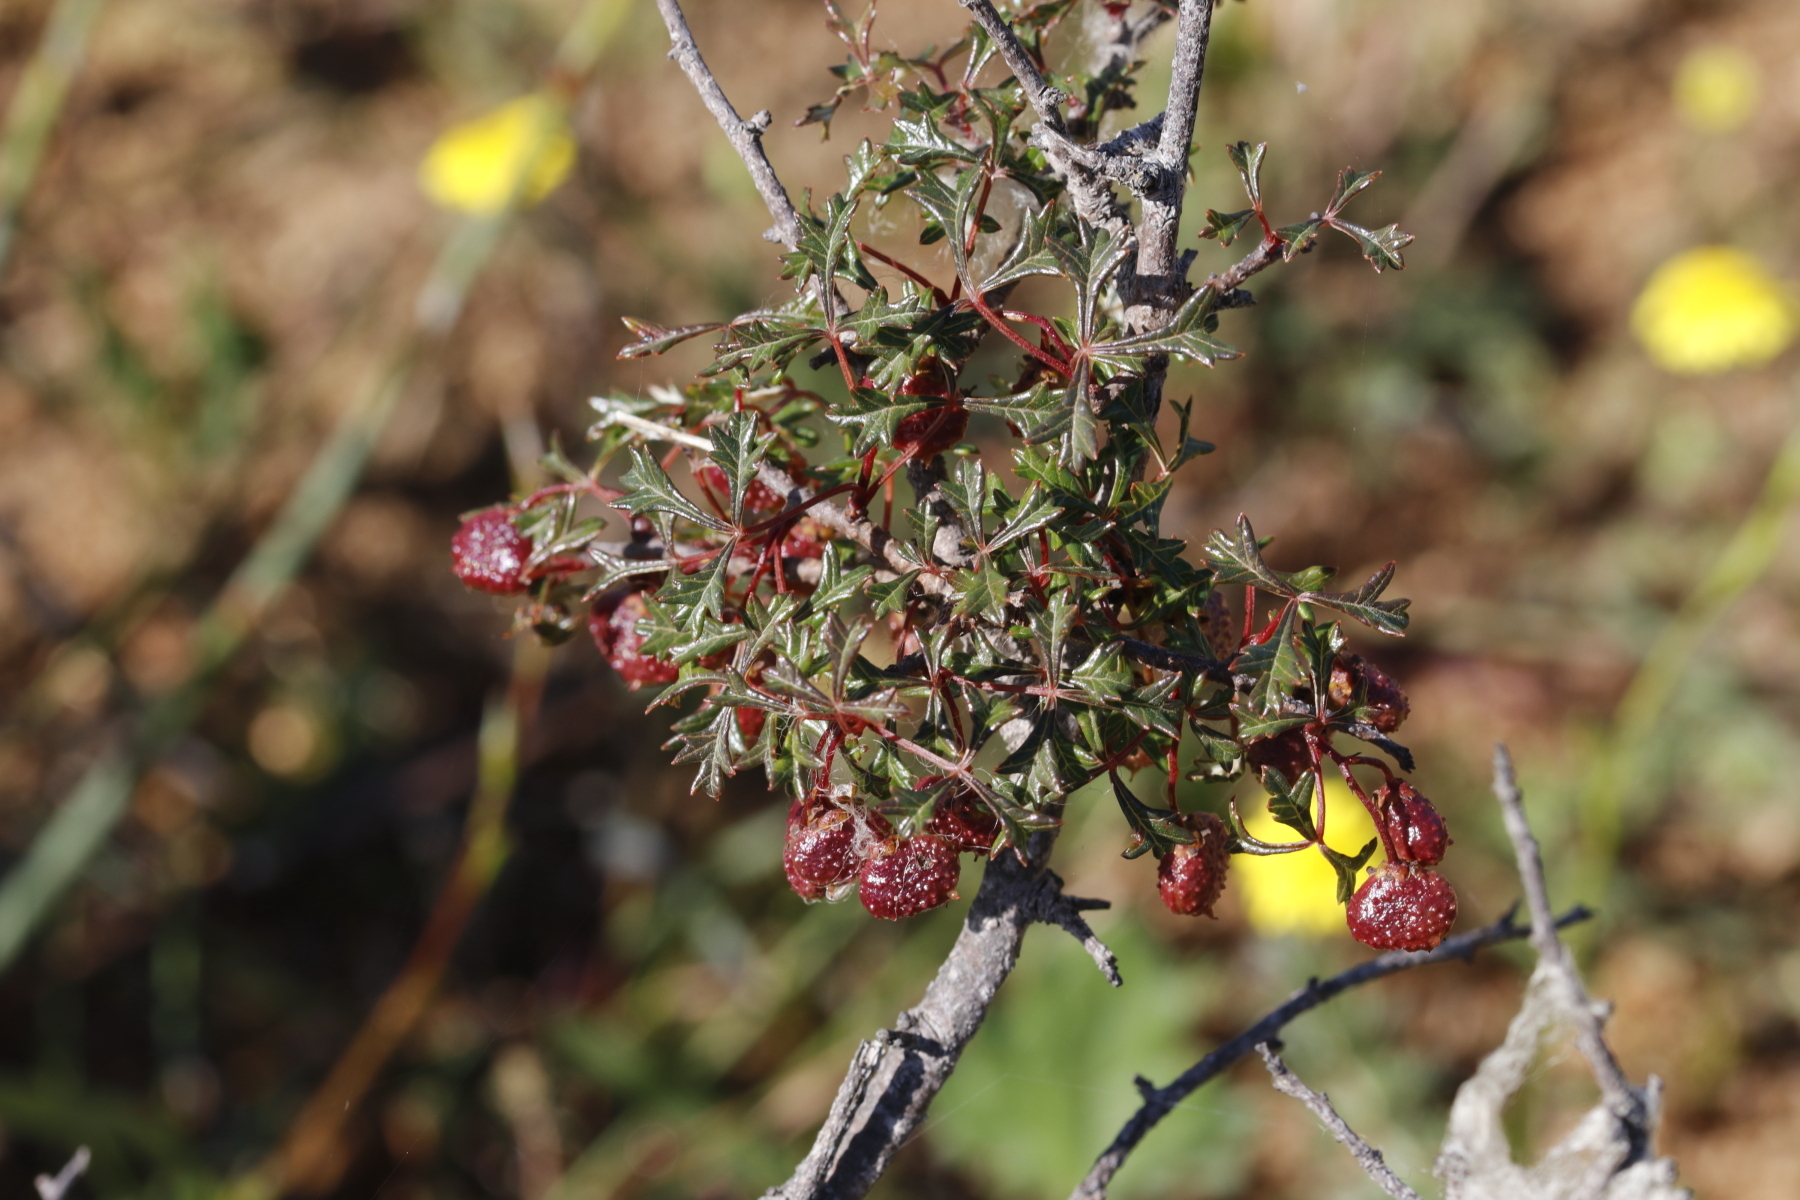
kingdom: Plantae
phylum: Tracheophyta
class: Magnoliopsida
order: Sapindales
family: Anacardiaceae
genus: Searsia
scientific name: Searsia dissecta
